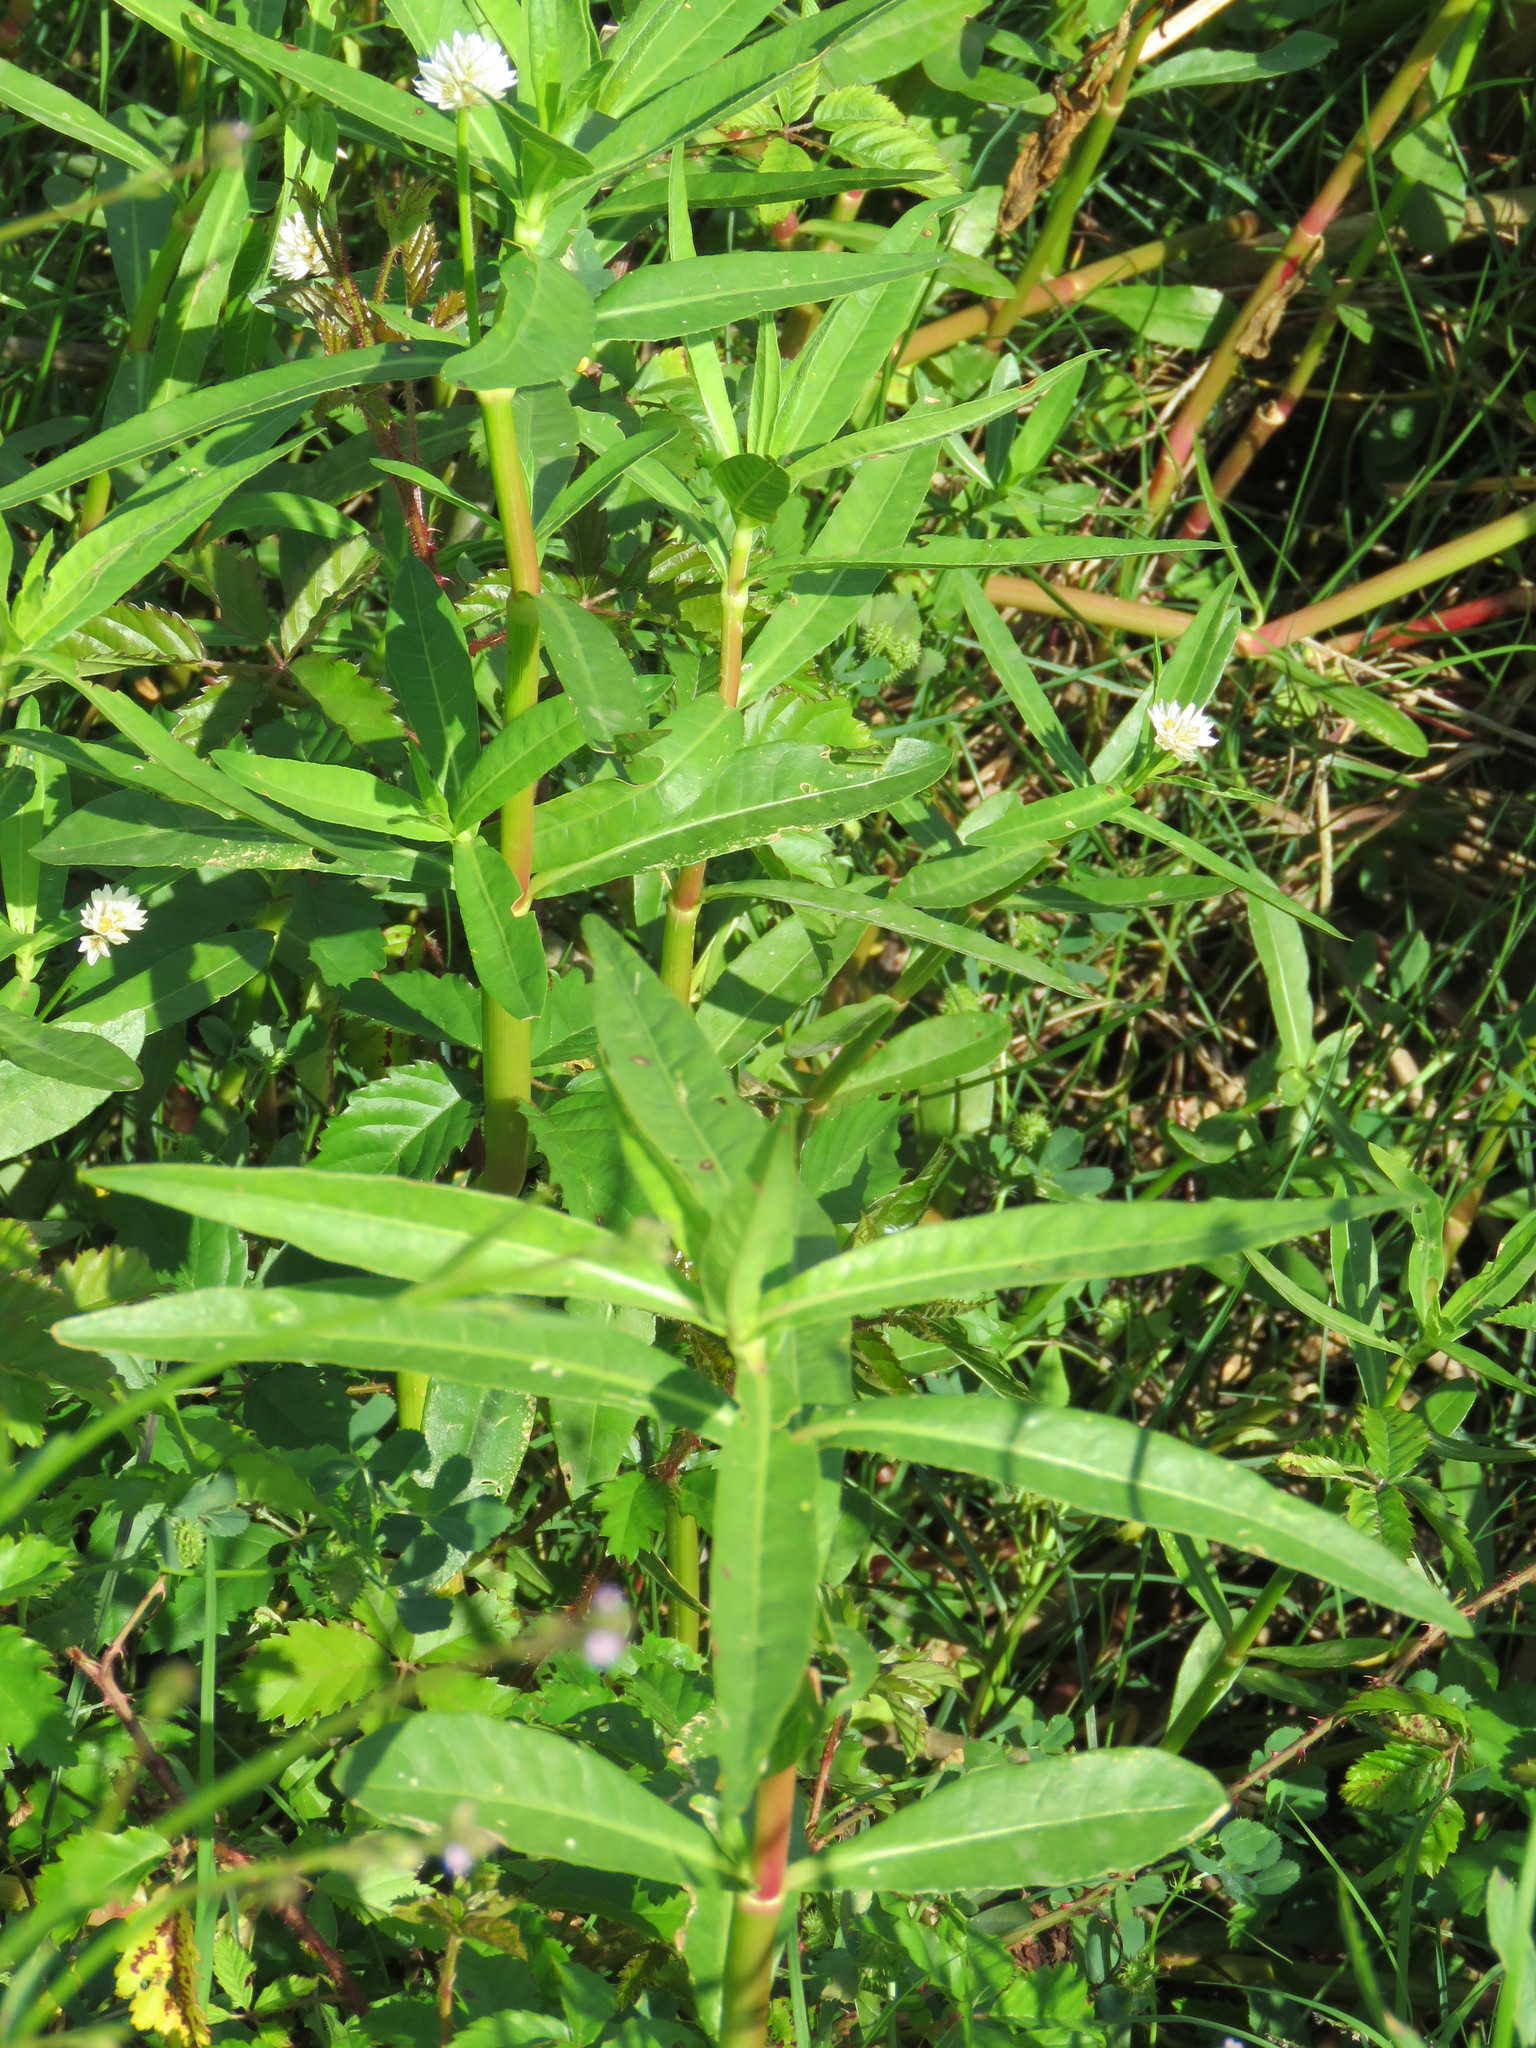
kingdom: Plantae
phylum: Tracheophyta
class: Magnoliopsida
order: Caryophyllales
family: Amaranthaceae
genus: Alternanthera
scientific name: Alternanthera philoxeroides
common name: Alligatorweed
